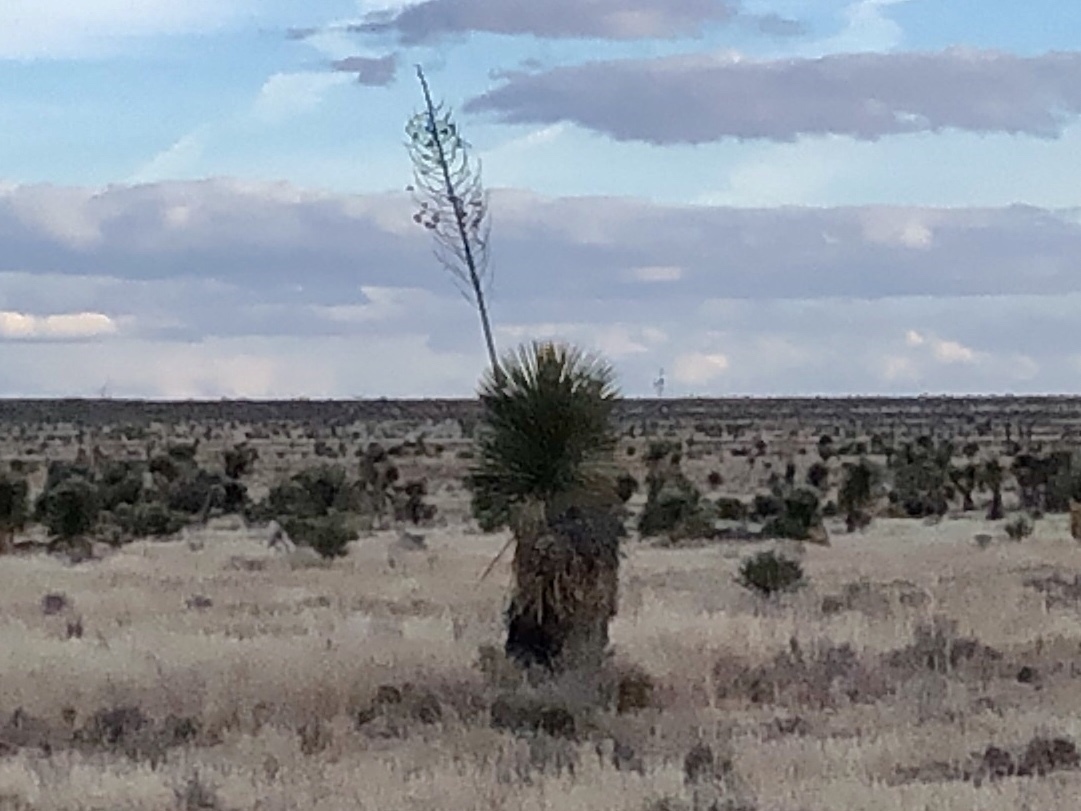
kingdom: Plantae
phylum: Tracheophyta
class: Liliopsida
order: Asparagales
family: Asparagaceae
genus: Yucca
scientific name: Yucca elata
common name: Palmella
